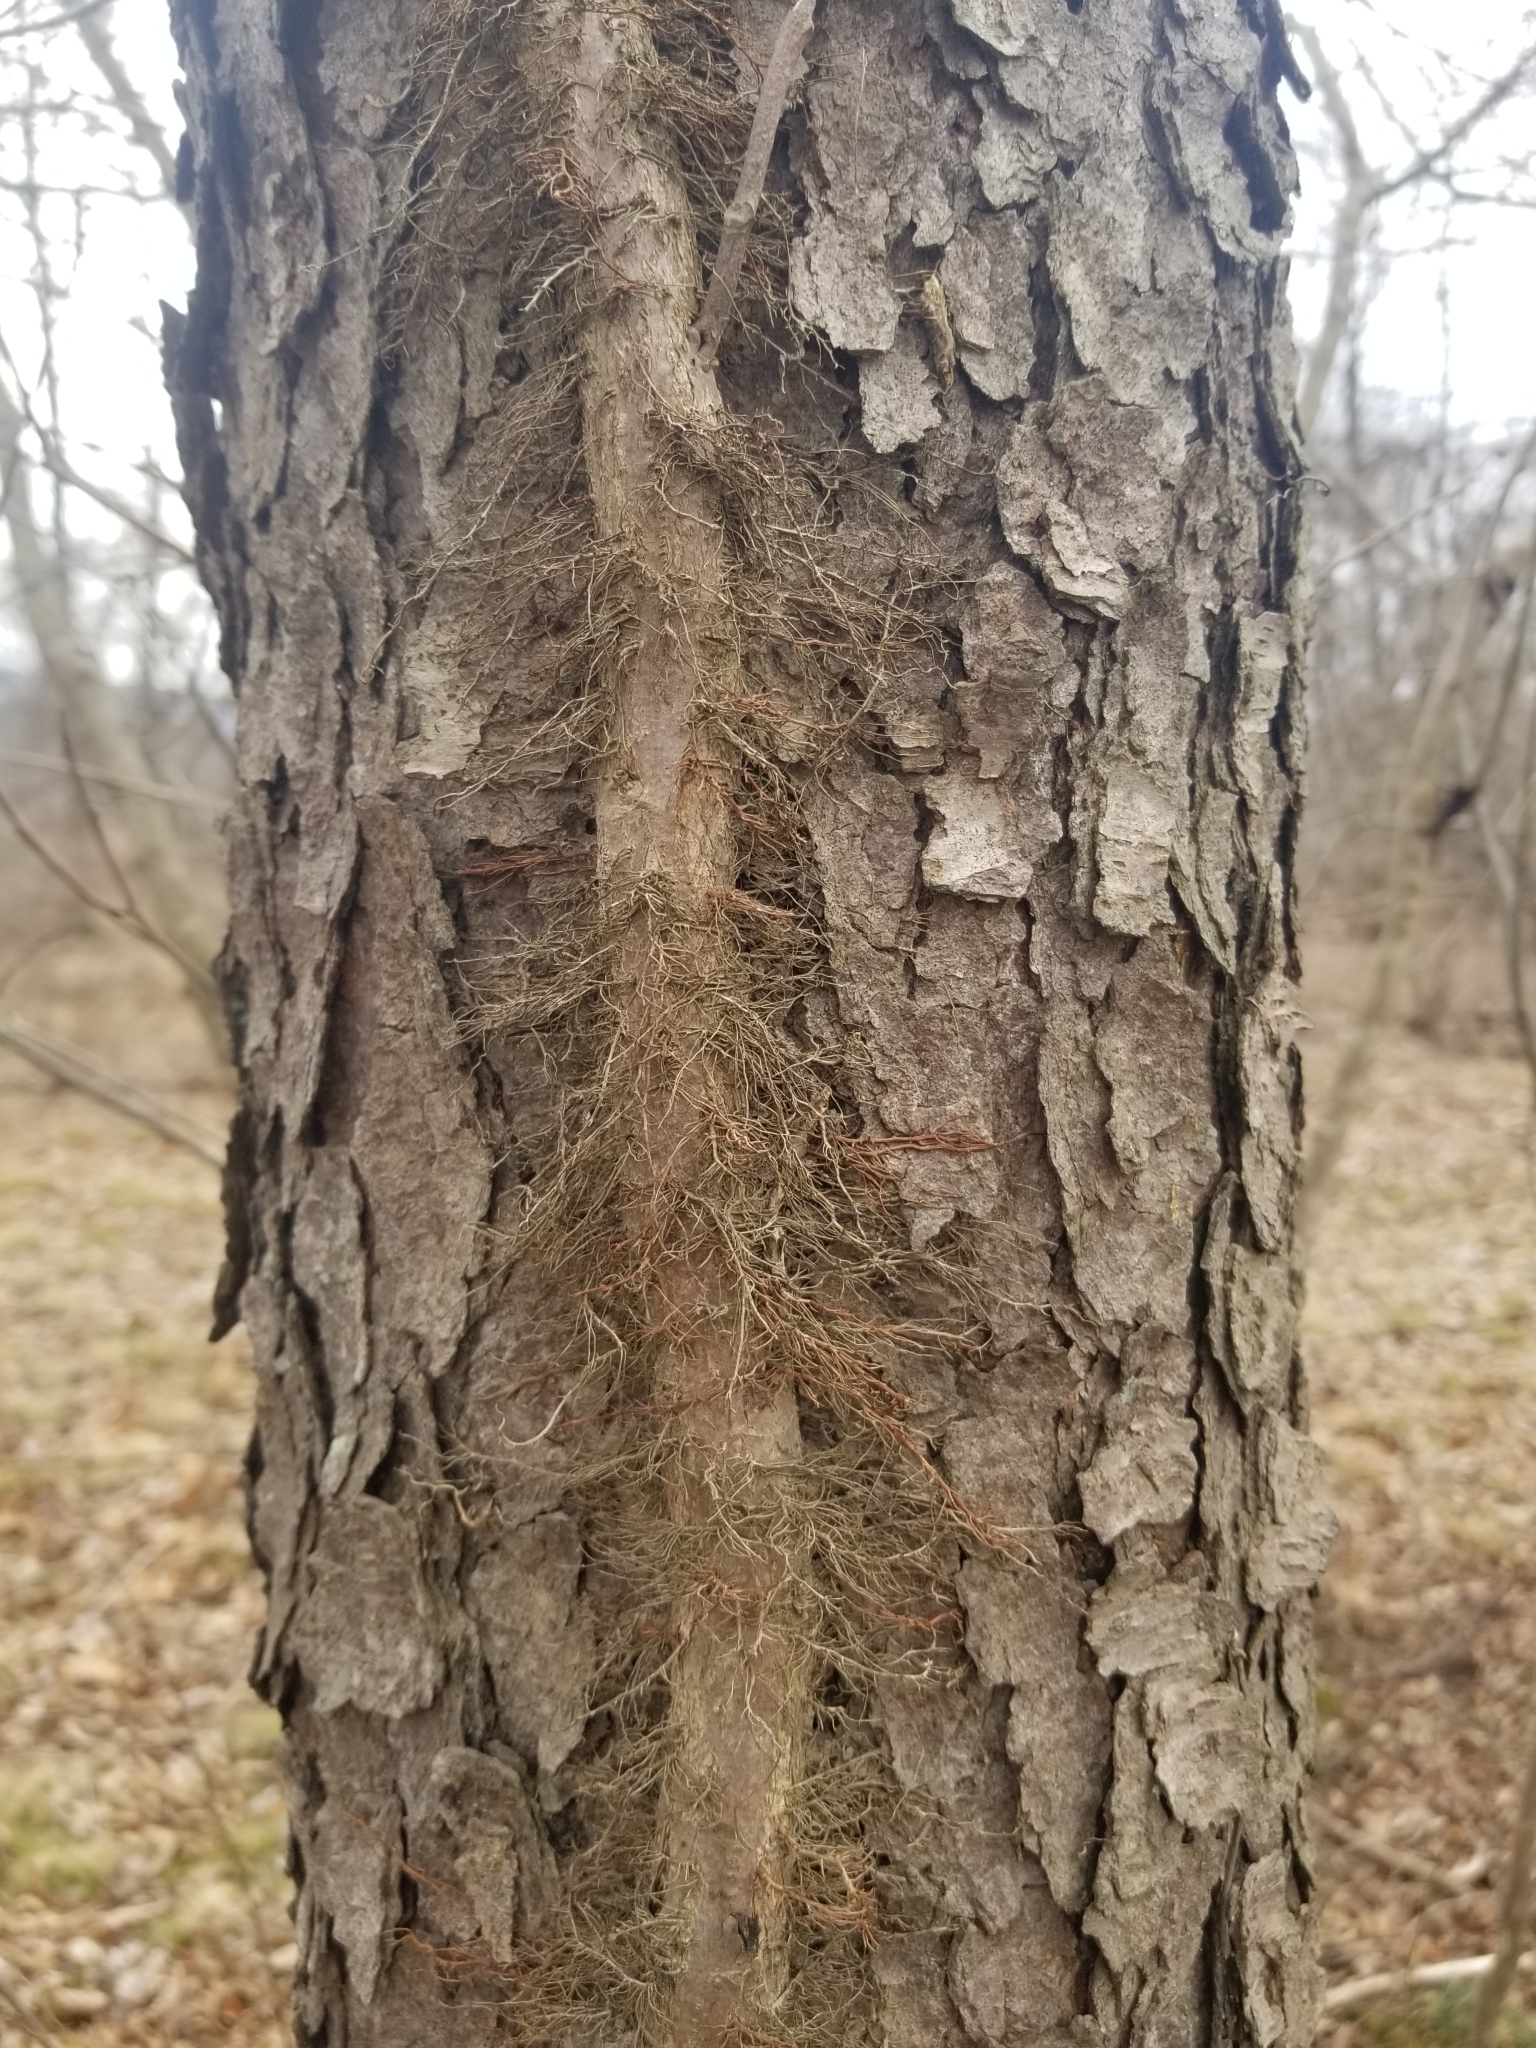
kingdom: Plantae
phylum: Tracheophyta
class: Magnoliopsida
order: Sapindales
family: Anacardiaceae
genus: Toxicodendron
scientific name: Toxicodendron radicans
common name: Poison ivy
